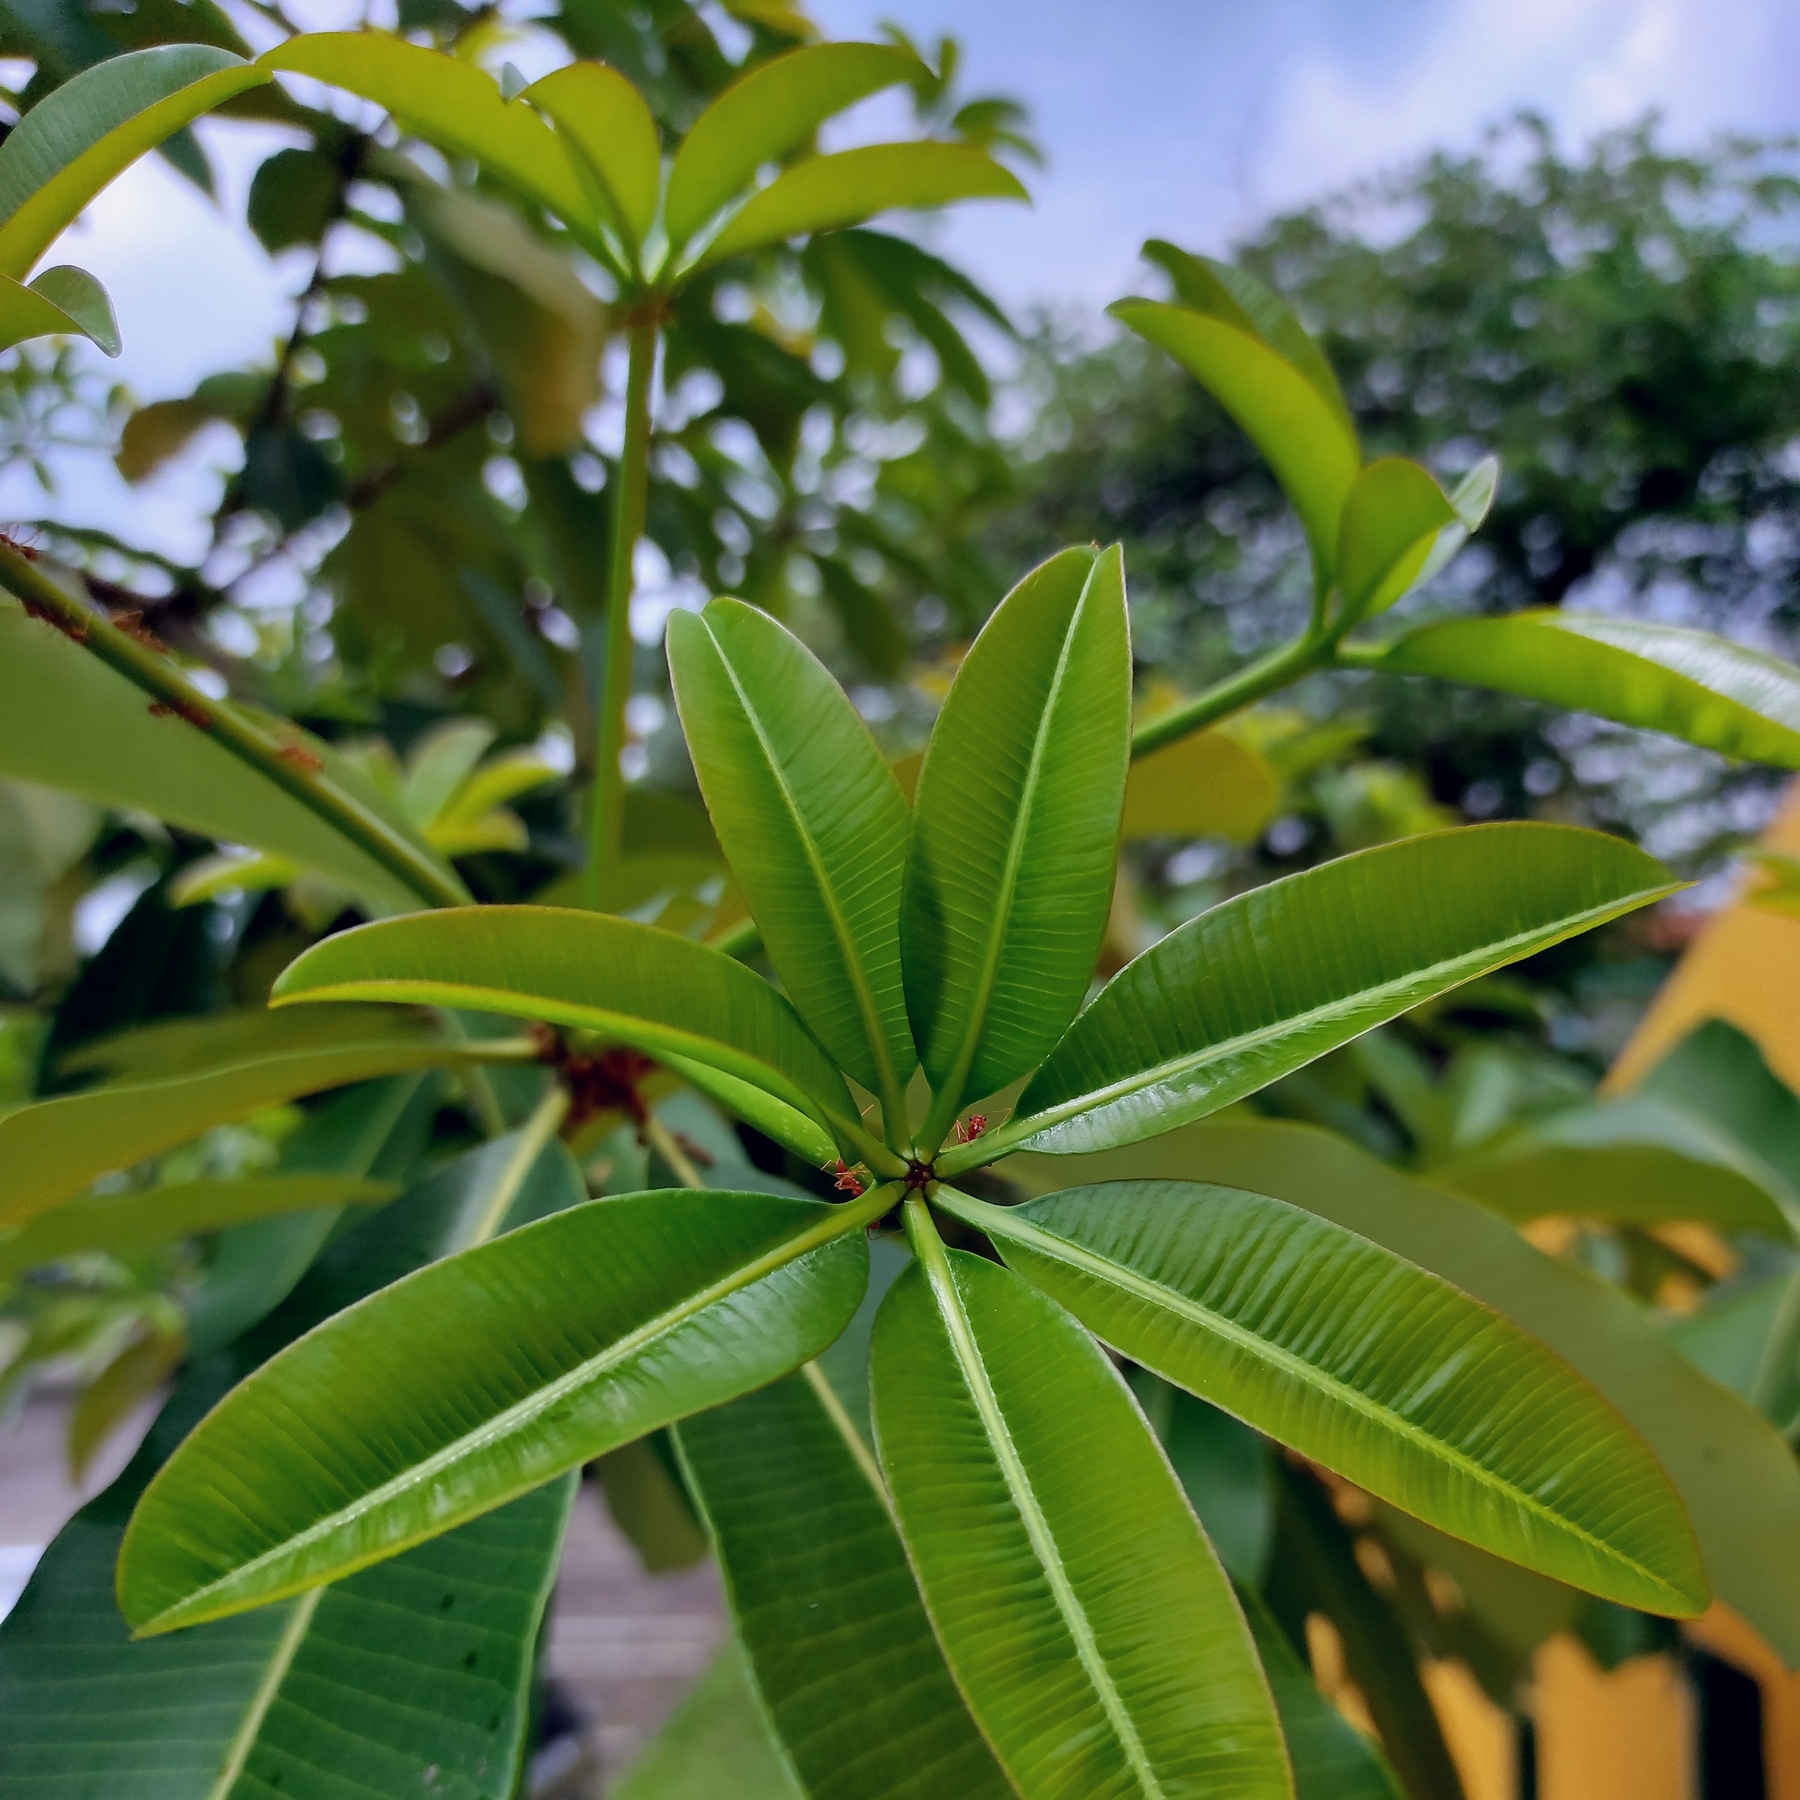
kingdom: Plantae
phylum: Tracheophyta
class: Magnoliopsida
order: Gentianales
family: Apocynaceae
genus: Alstonia
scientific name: Alstonia scholaris
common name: White cheesewood
